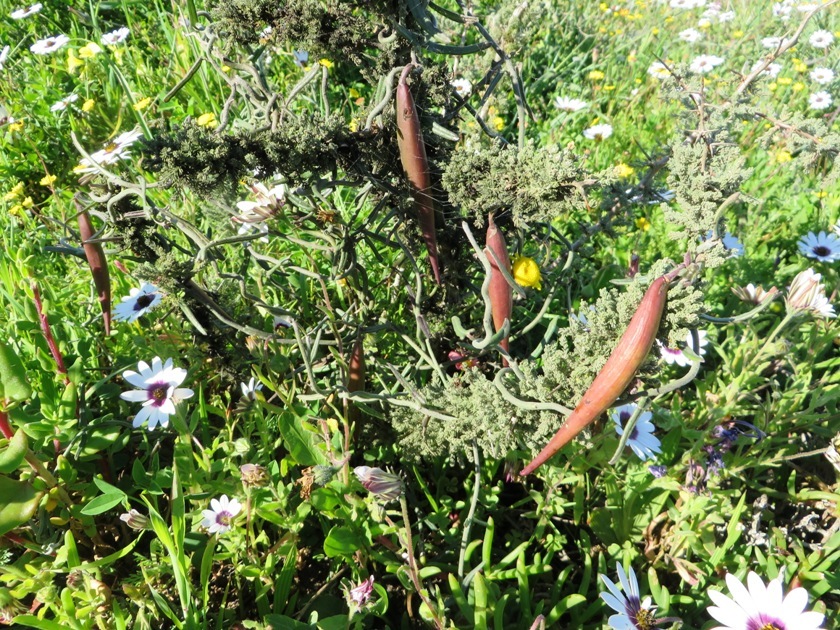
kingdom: Plantae
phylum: Tracheophyta
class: Magnoliopsida
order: Gentianales
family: Apocynaceae
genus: Microloma
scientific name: Microloma sagittatum
